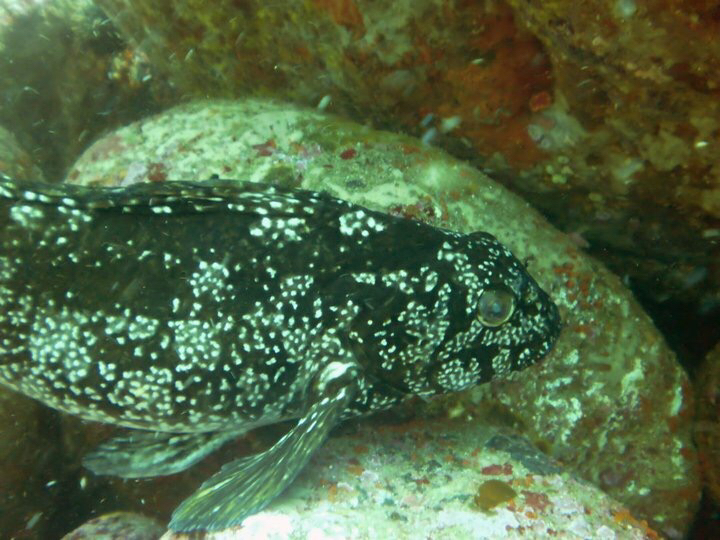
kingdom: Animalia
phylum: Chordata
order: Perciformes
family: Aplodactylidae
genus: Aplodactylus
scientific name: Aplodactylus arctidens
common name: Marblefish
